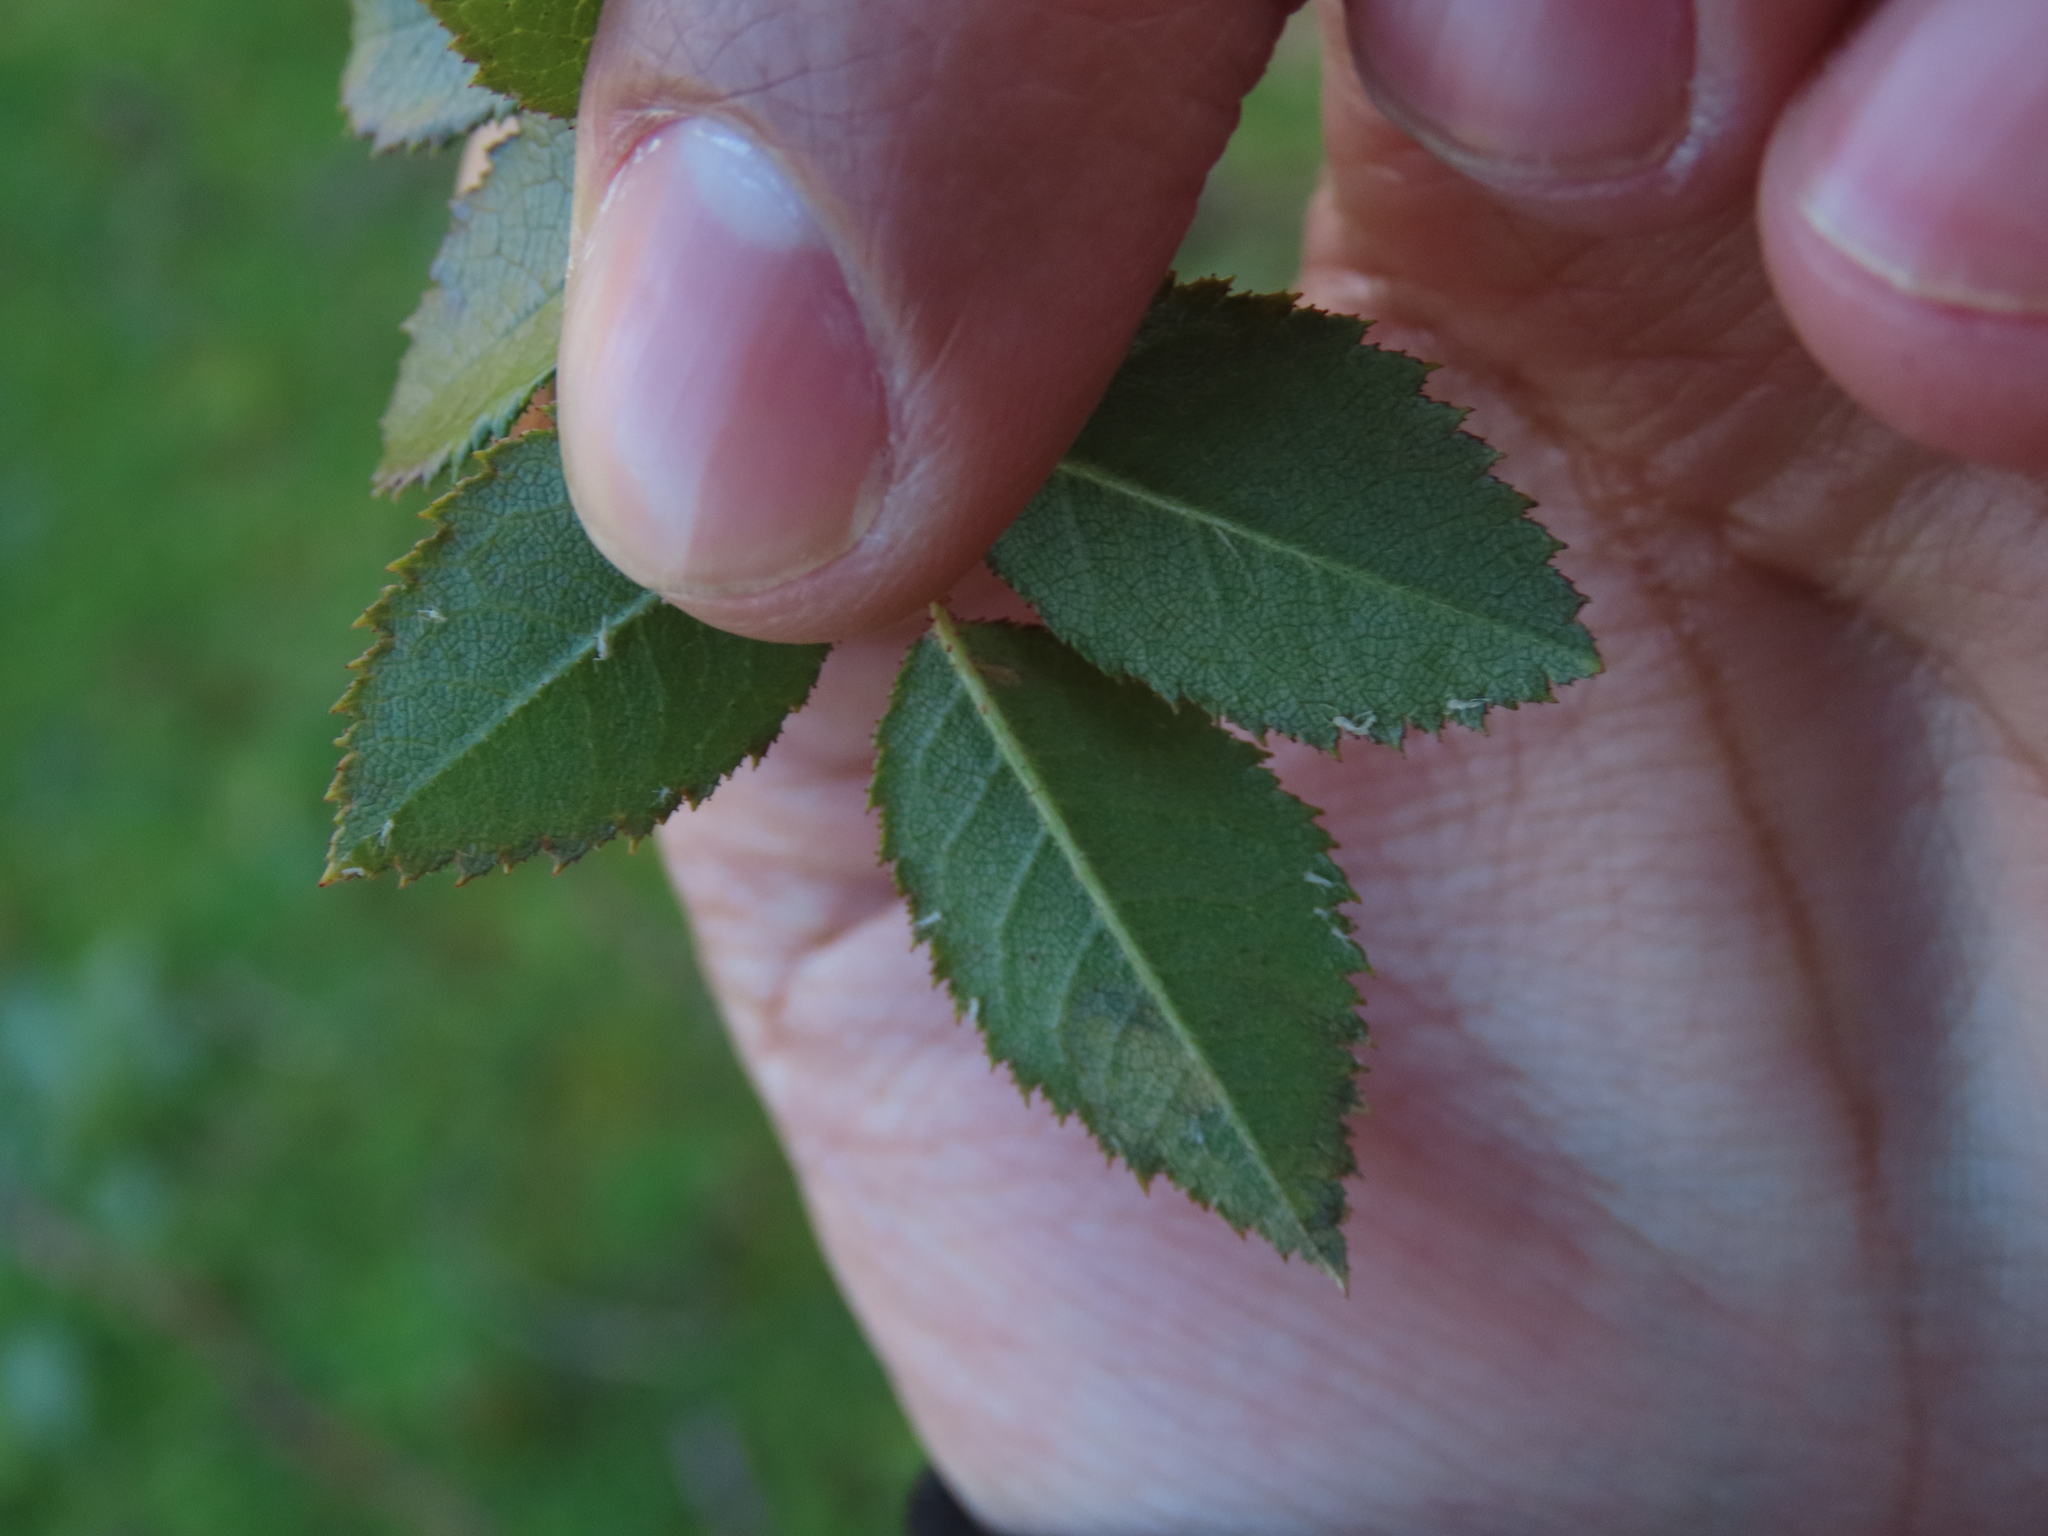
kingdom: Animalia
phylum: Arthropoda
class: Insecta
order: Lepidoptera
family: Nepticulidae
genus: Stigmella
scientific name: Stigmella centifoliella
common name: Narrow-barred pigmy
